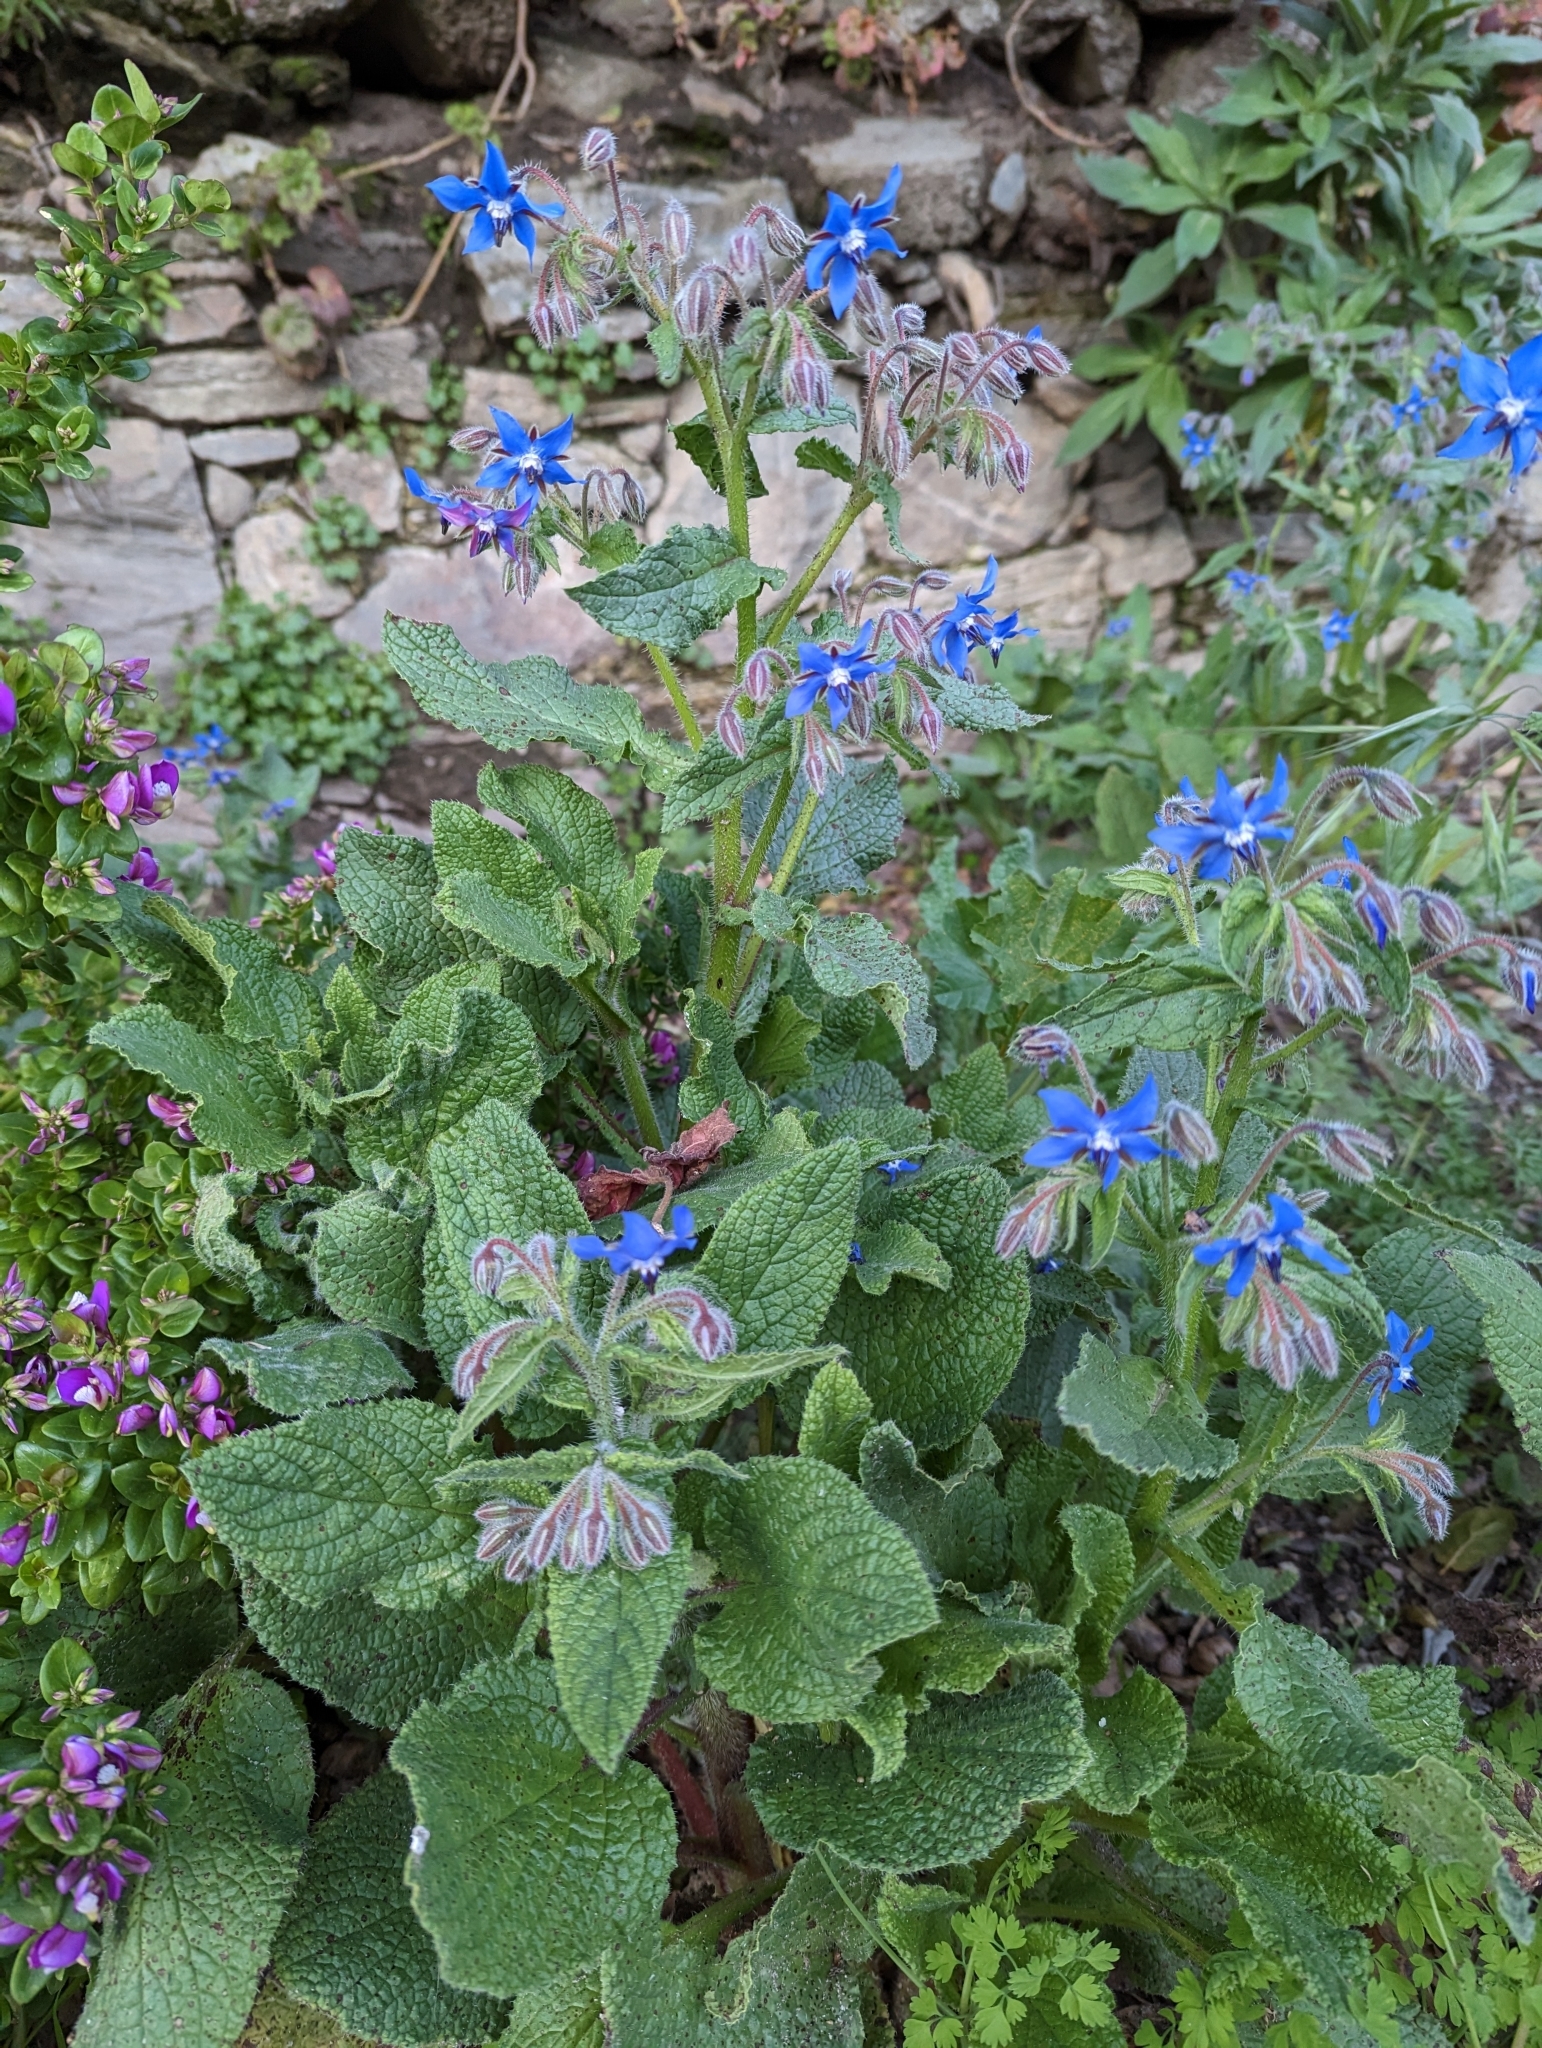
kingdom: Plantae
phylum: Tracheophyta
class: Magnoliopsida
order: Boraginales
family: Boraginaceae
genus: Borago
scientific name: Borago officinalis
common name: Borage
